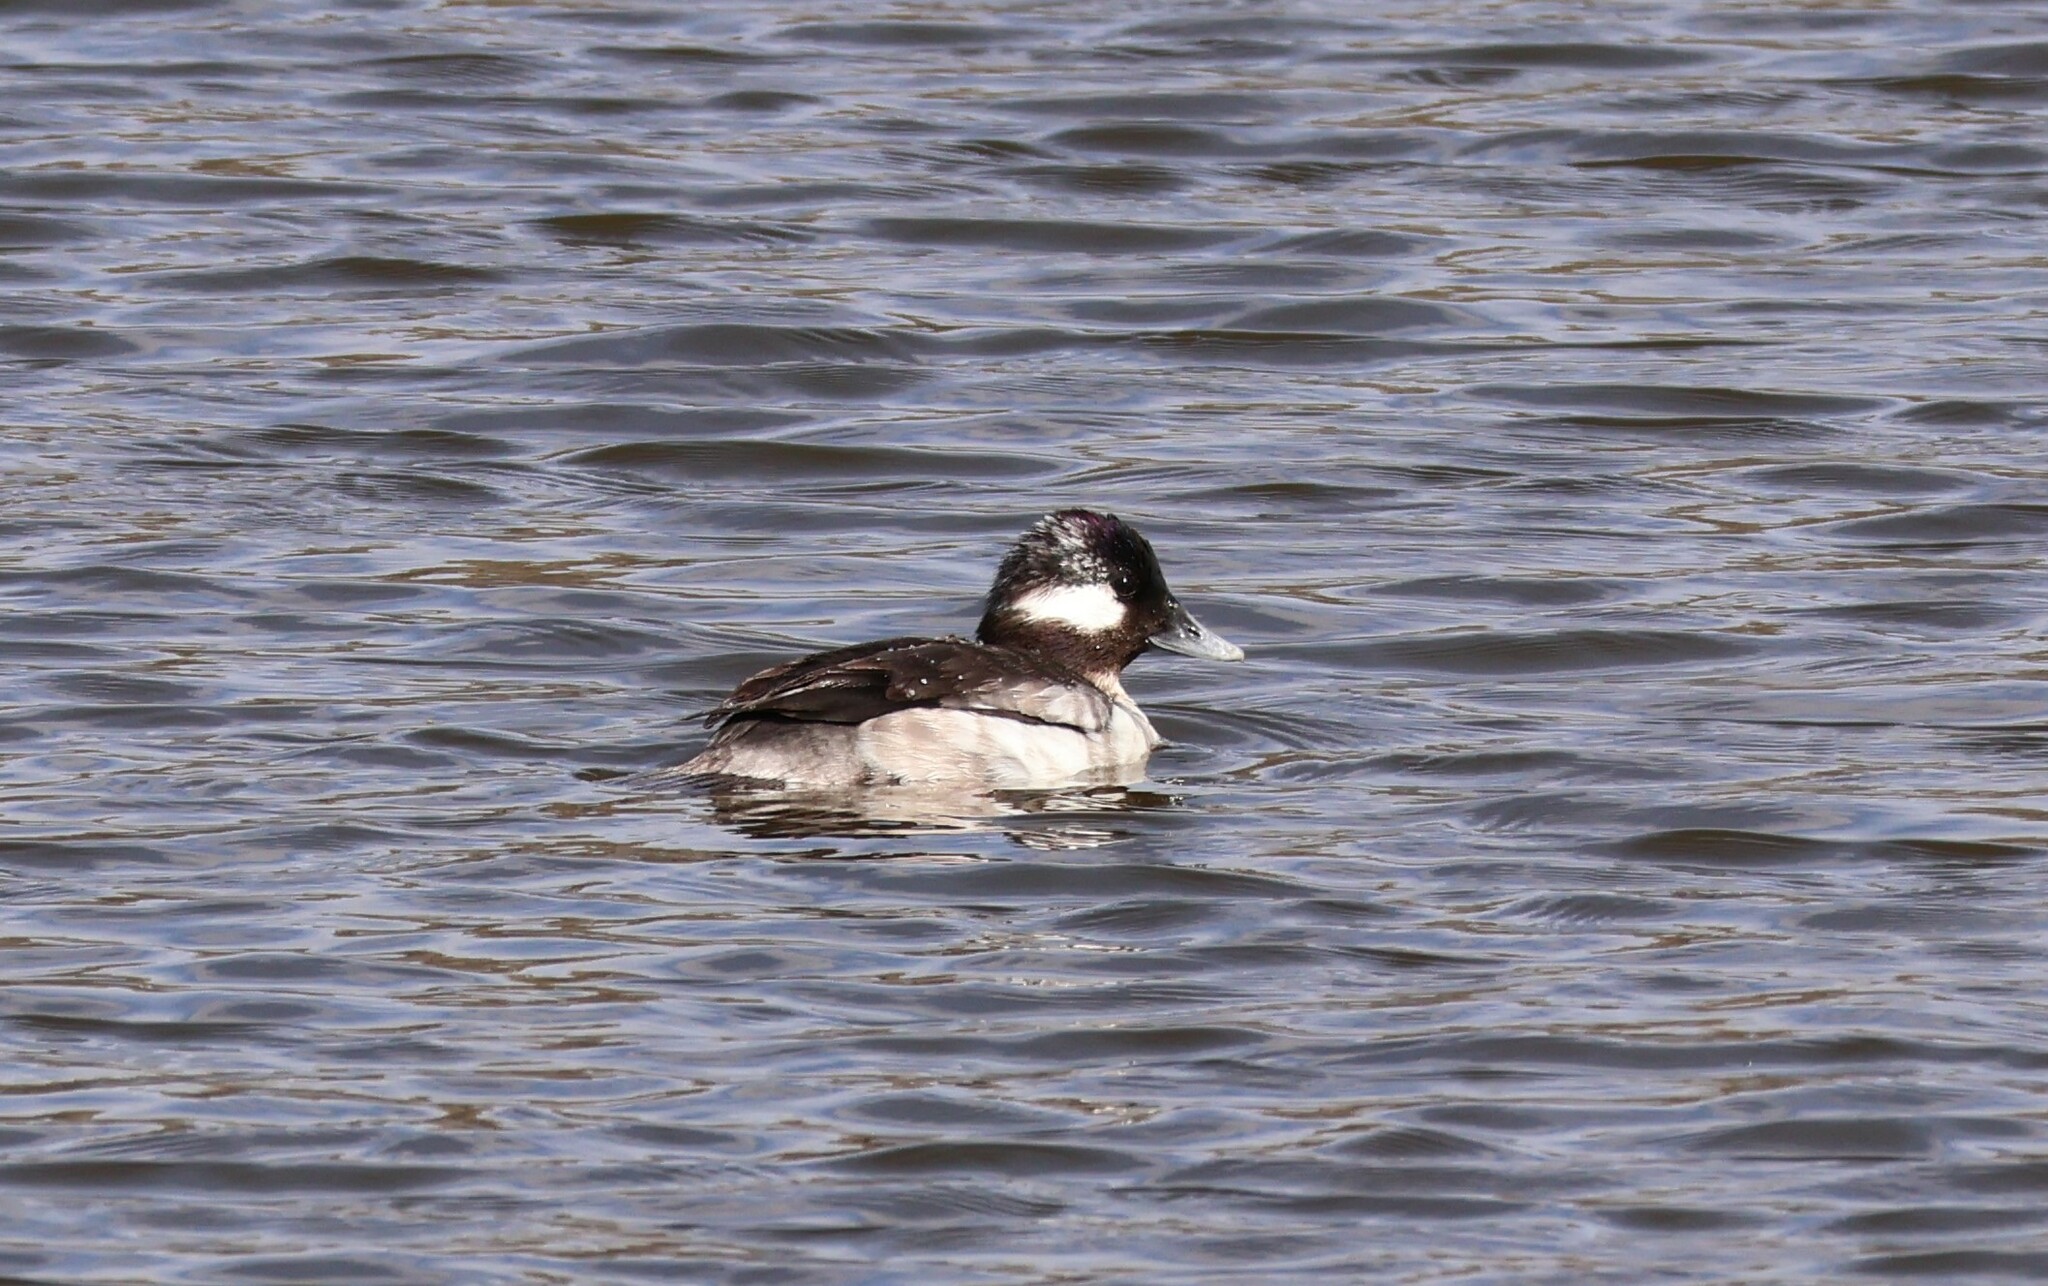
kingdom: Animalia
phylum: Chordata
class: Aves
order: Anseriformes
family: Anatidae
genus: Bucephala
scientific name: Bucephala albeola
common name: Bufflehead
